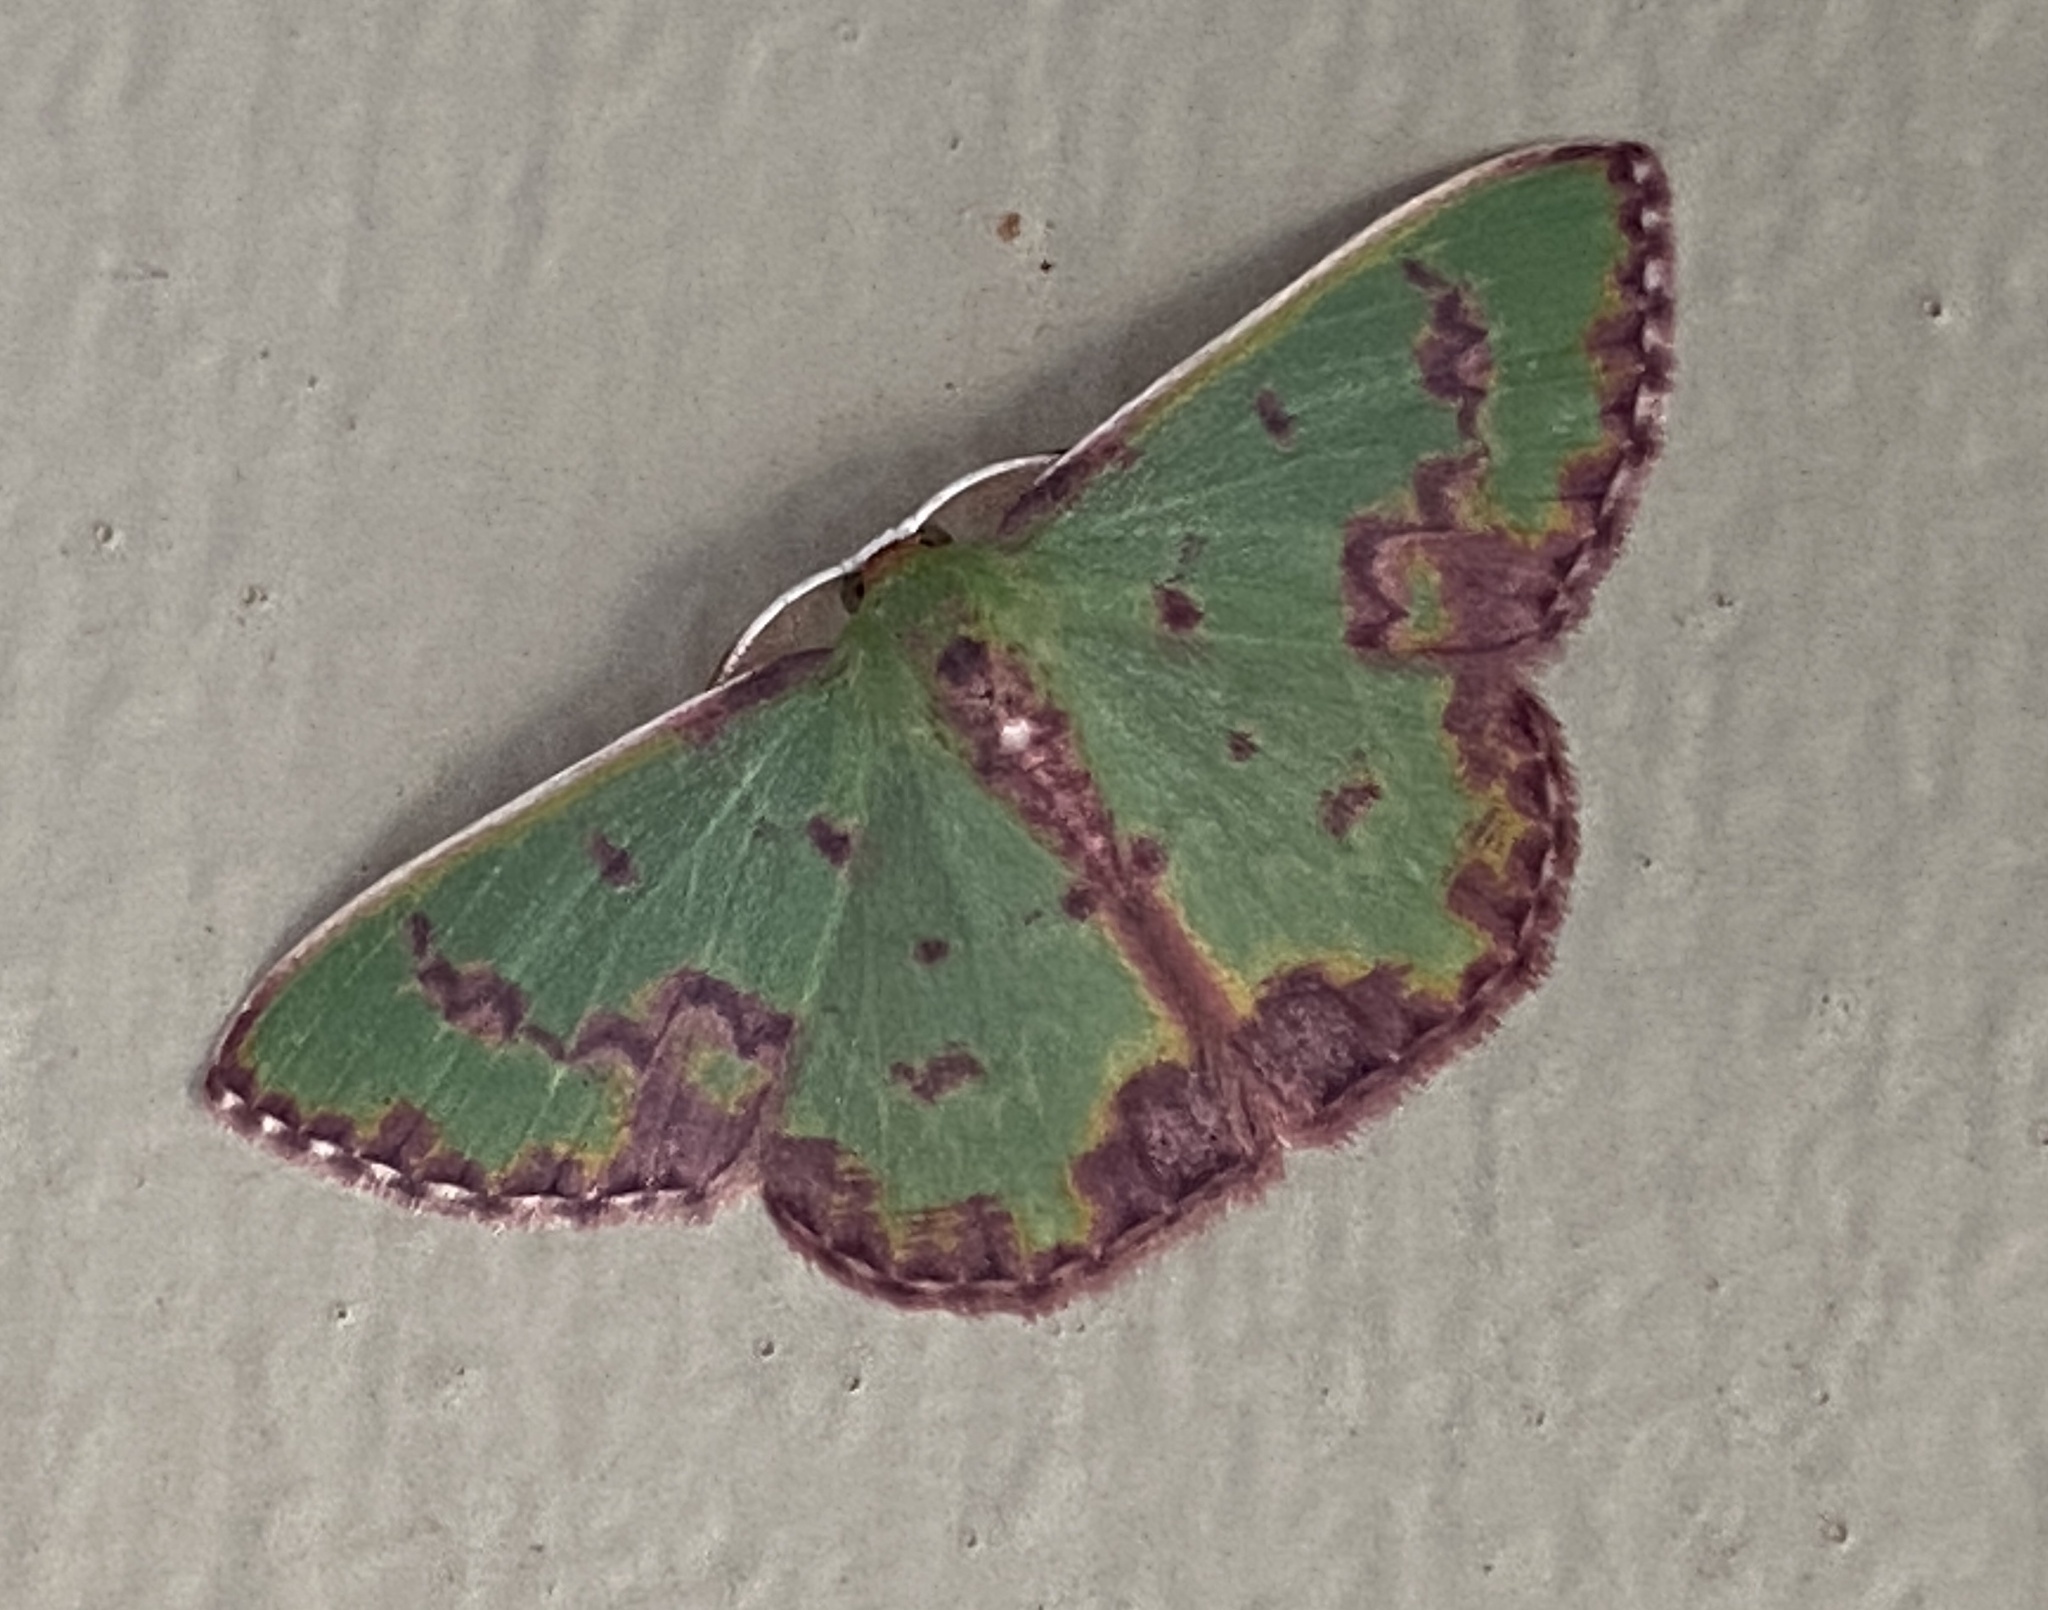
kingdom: Animalia
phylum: Arthropoda
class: Insecta
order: Lepidoptera
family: Geometridae
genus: Prasinocyma
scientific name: Prasinocyma rhodocosma
